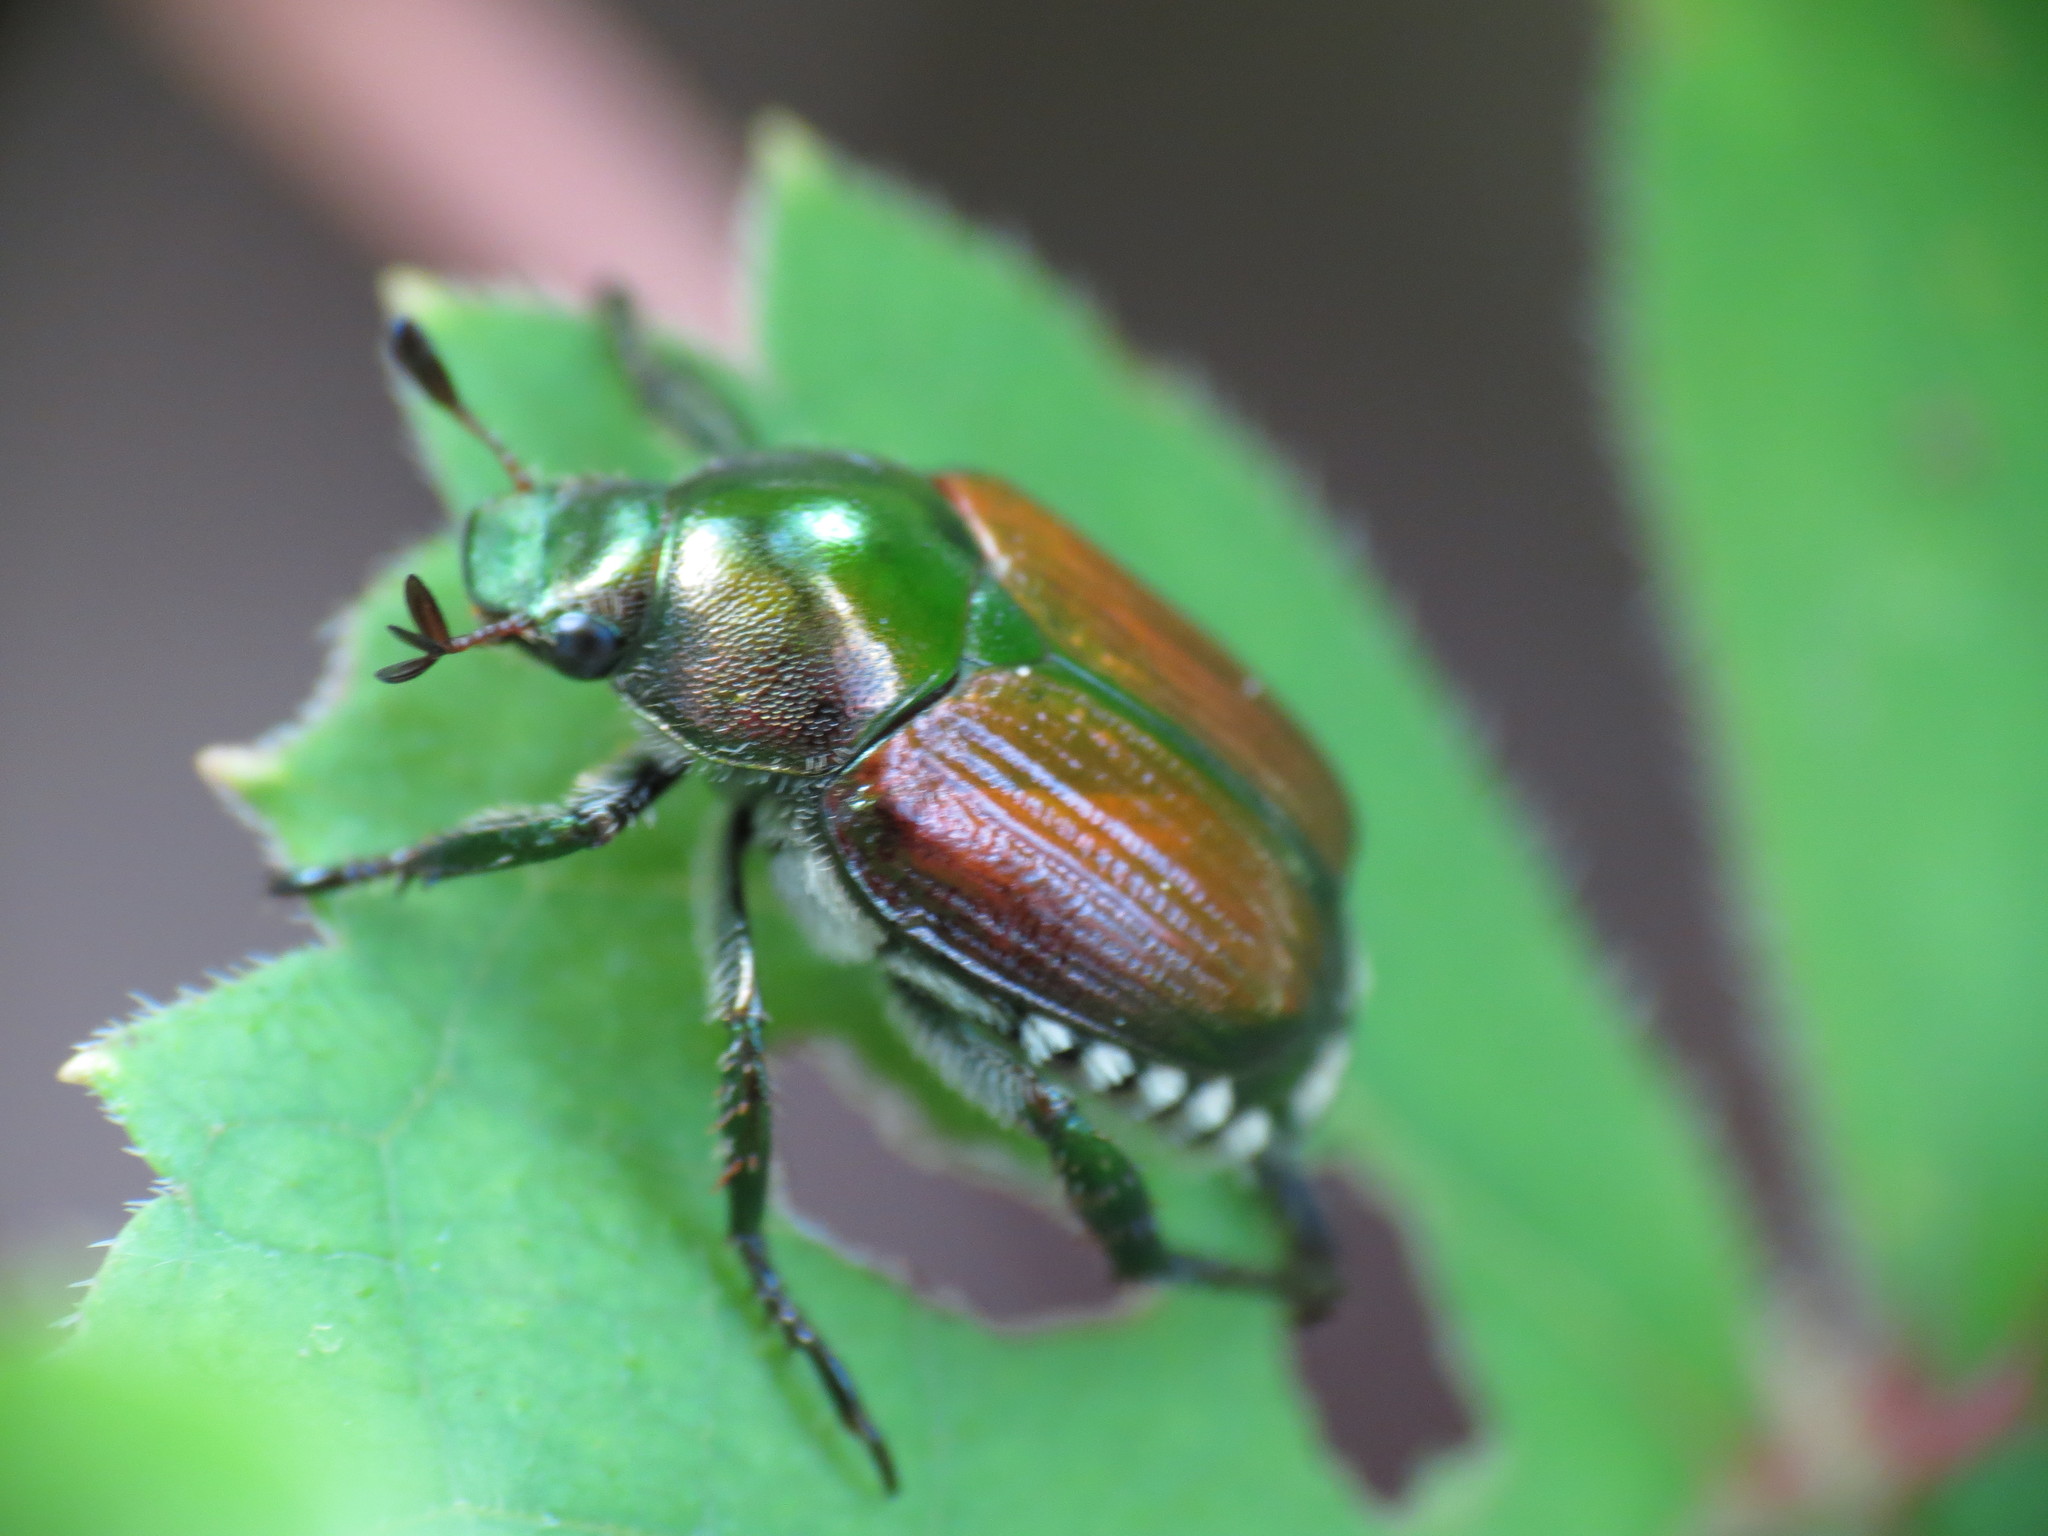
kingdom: Animalia
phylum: Arthropoda
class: Insecta
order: Coleoptera
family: Scarabaeidae
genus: Popillia
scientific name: Popillia japonica
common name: Japanese beetle
